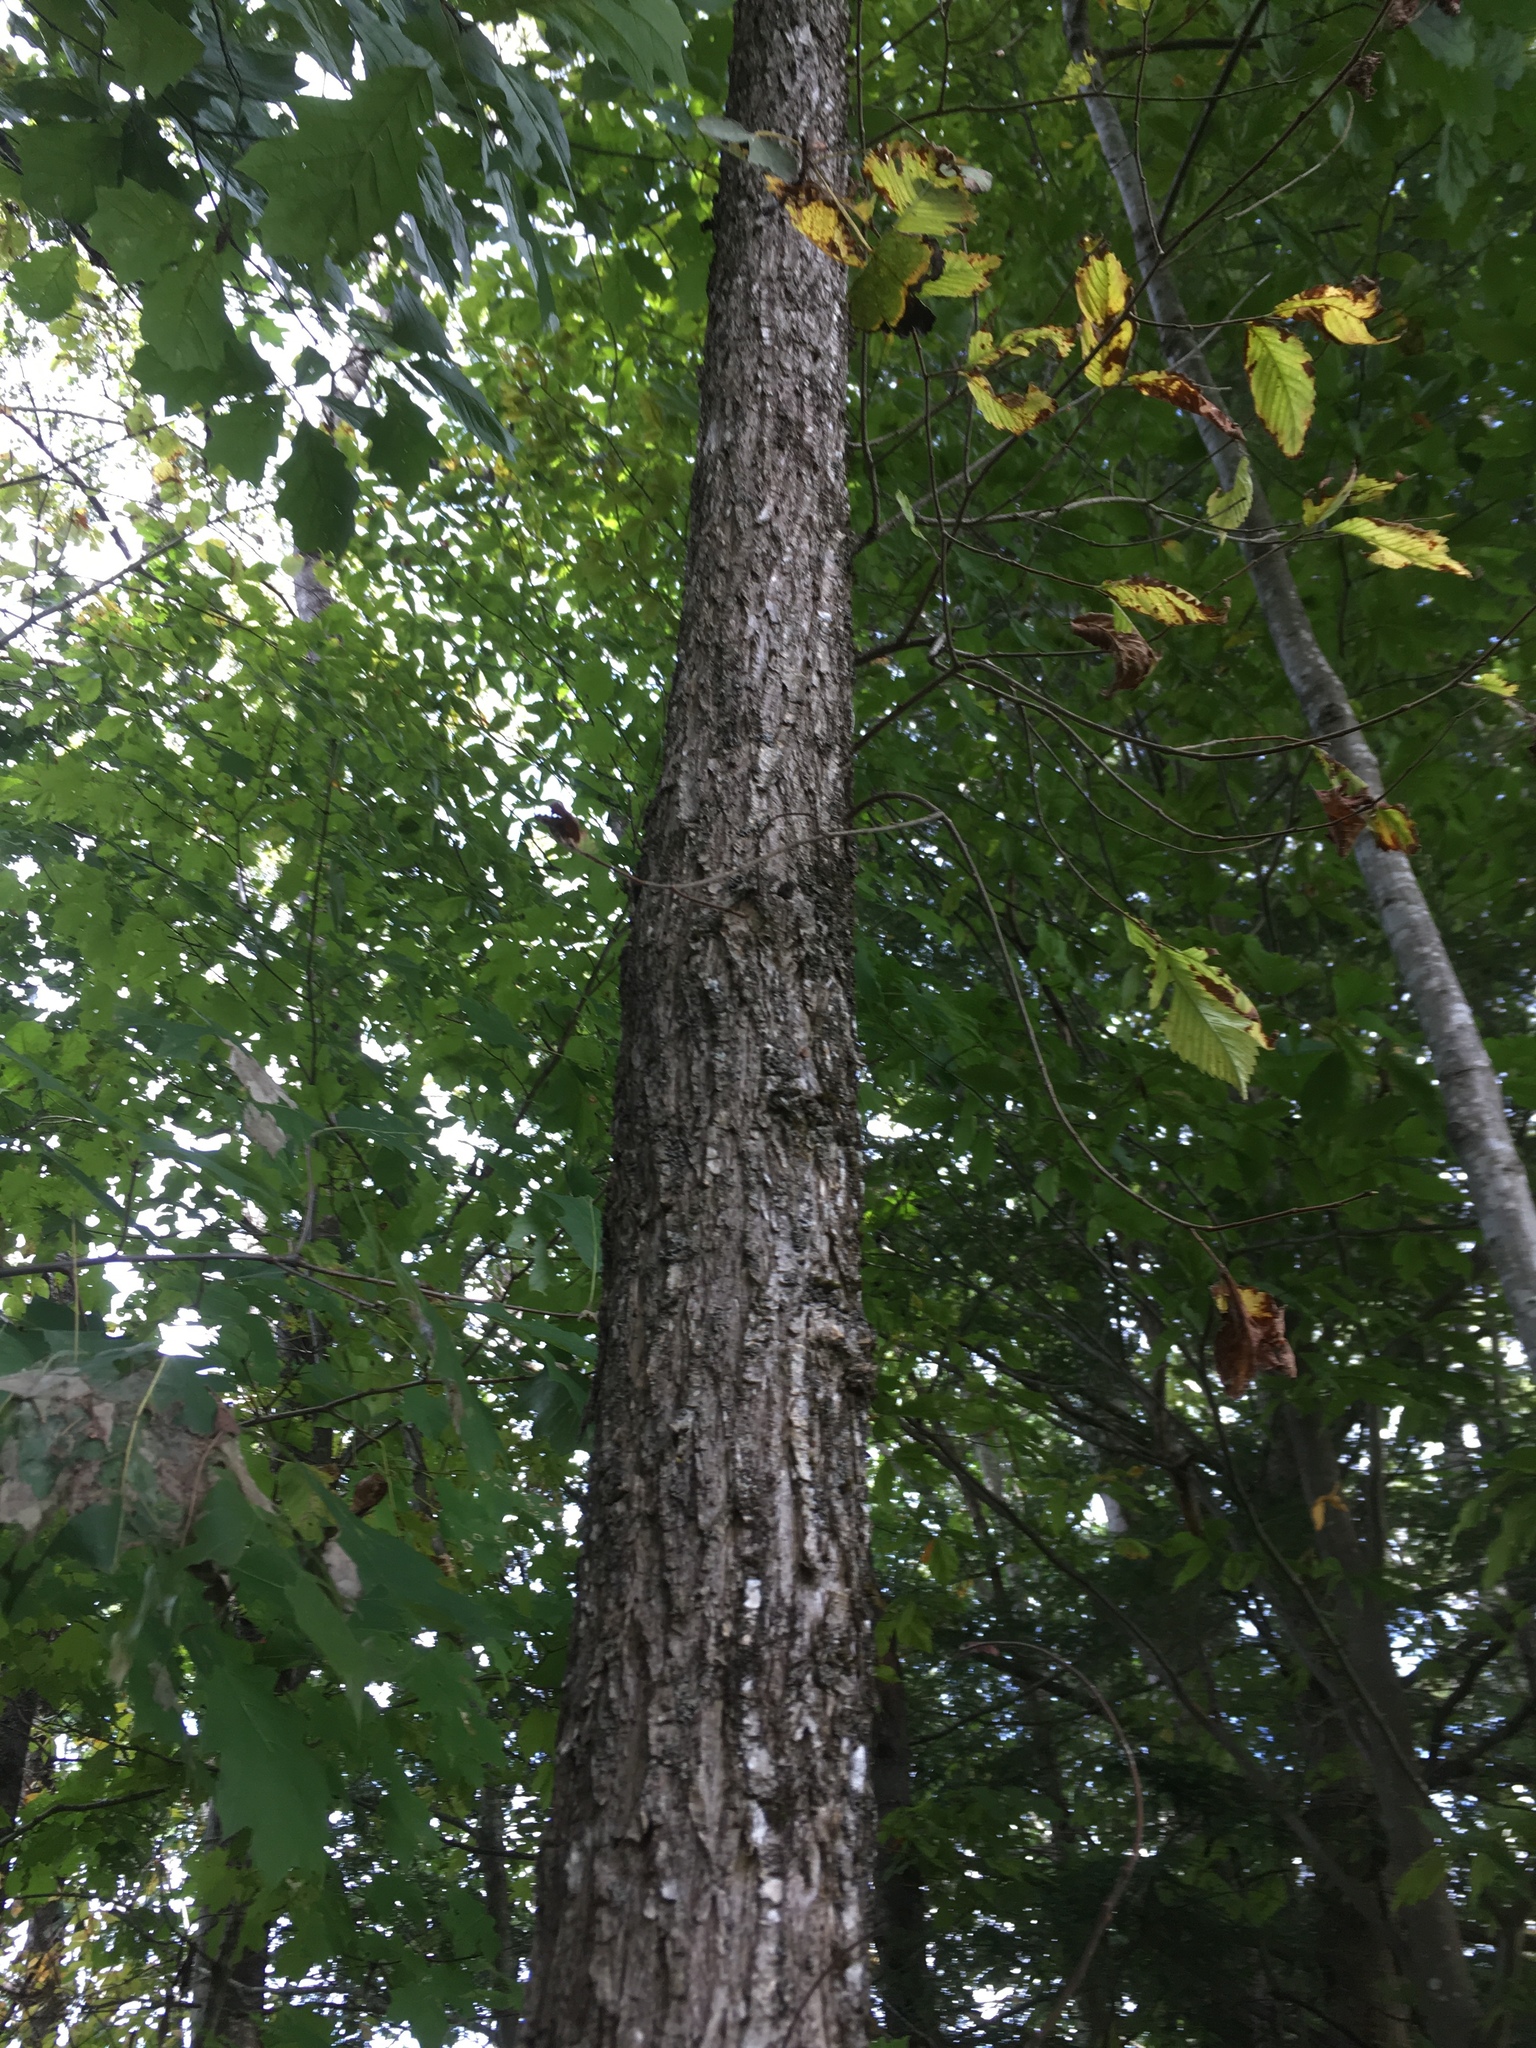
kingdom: Plantae
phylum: Tracheophyta
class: Magnoliopsida
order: Fagales
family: Betulaceae
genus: Ostrya
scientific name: Ostrya virginiana
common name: Ironwood
